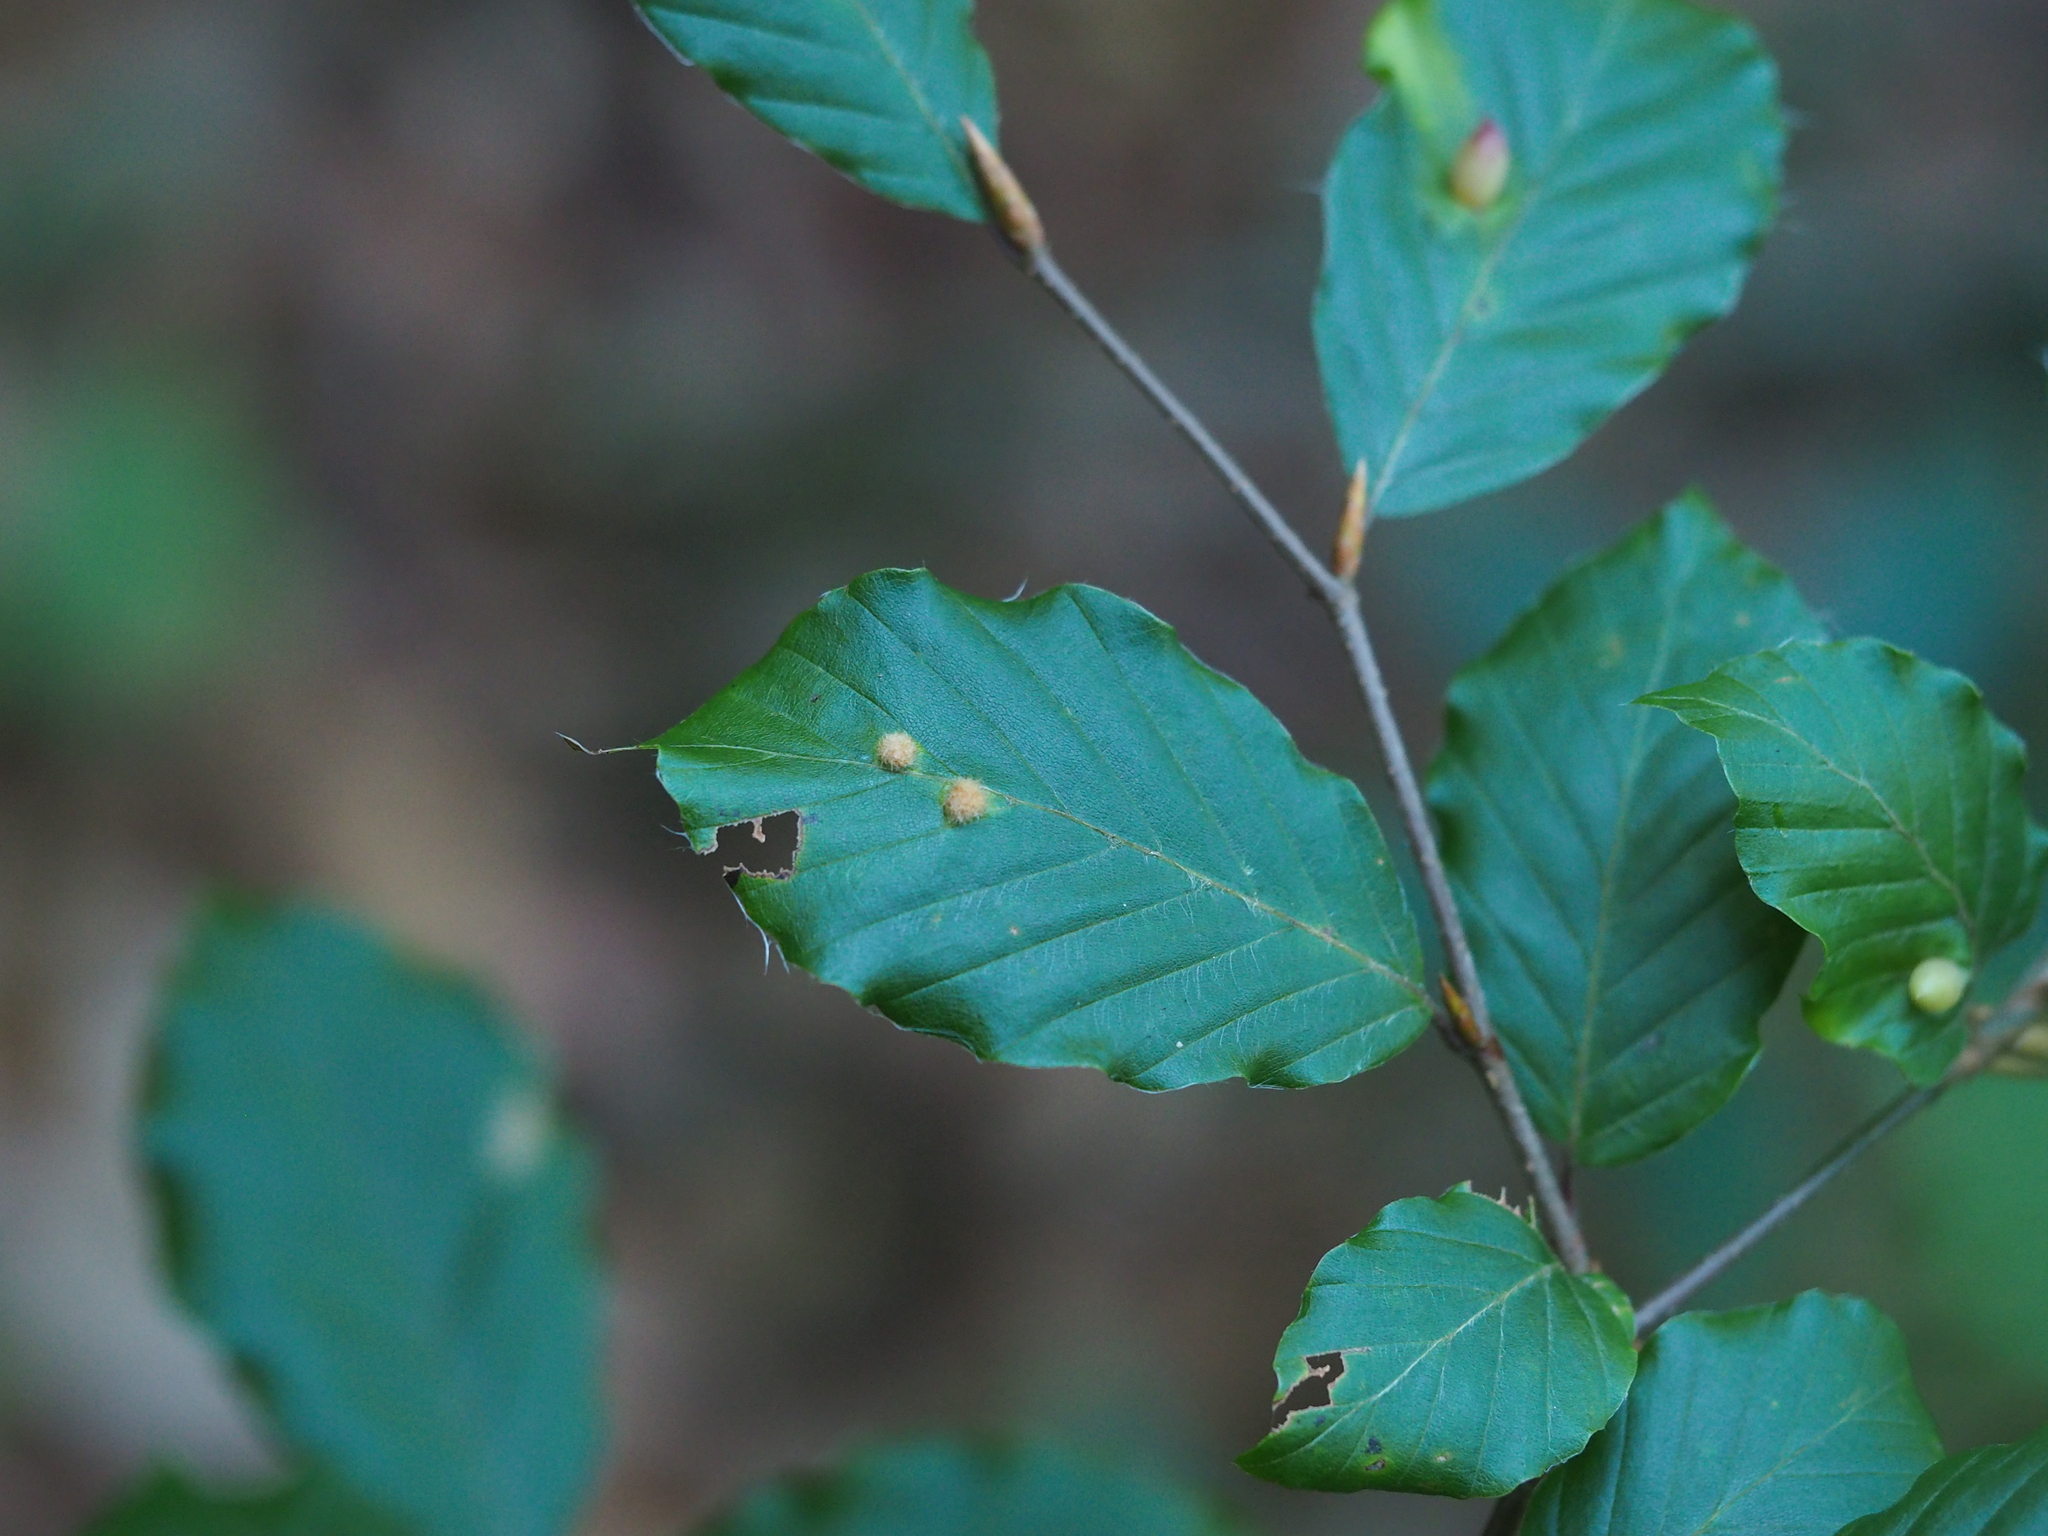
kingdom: Animalia
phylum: Arthropoda
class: Insecta
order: Diptera
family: Cecidomyiidae
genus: Hartigiola
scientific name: Hartigiola annulipes
